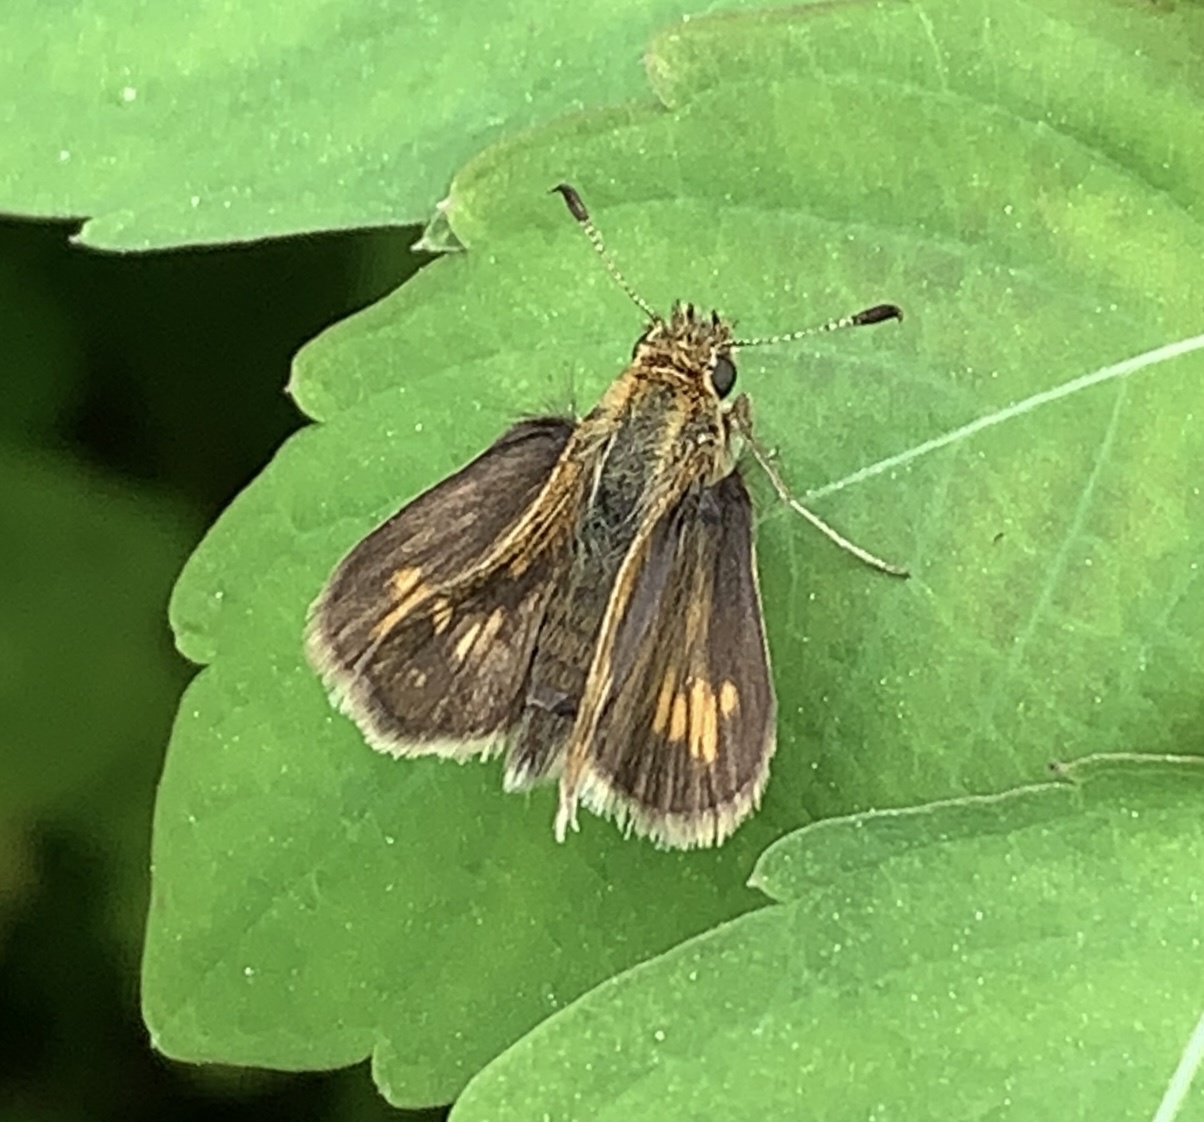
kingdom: Animalia
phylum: Arthropoda
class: Insecta
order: Lepidoptera
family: Hesperiidae
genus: Polites
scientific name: Polites coras
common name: Peck's skipper
